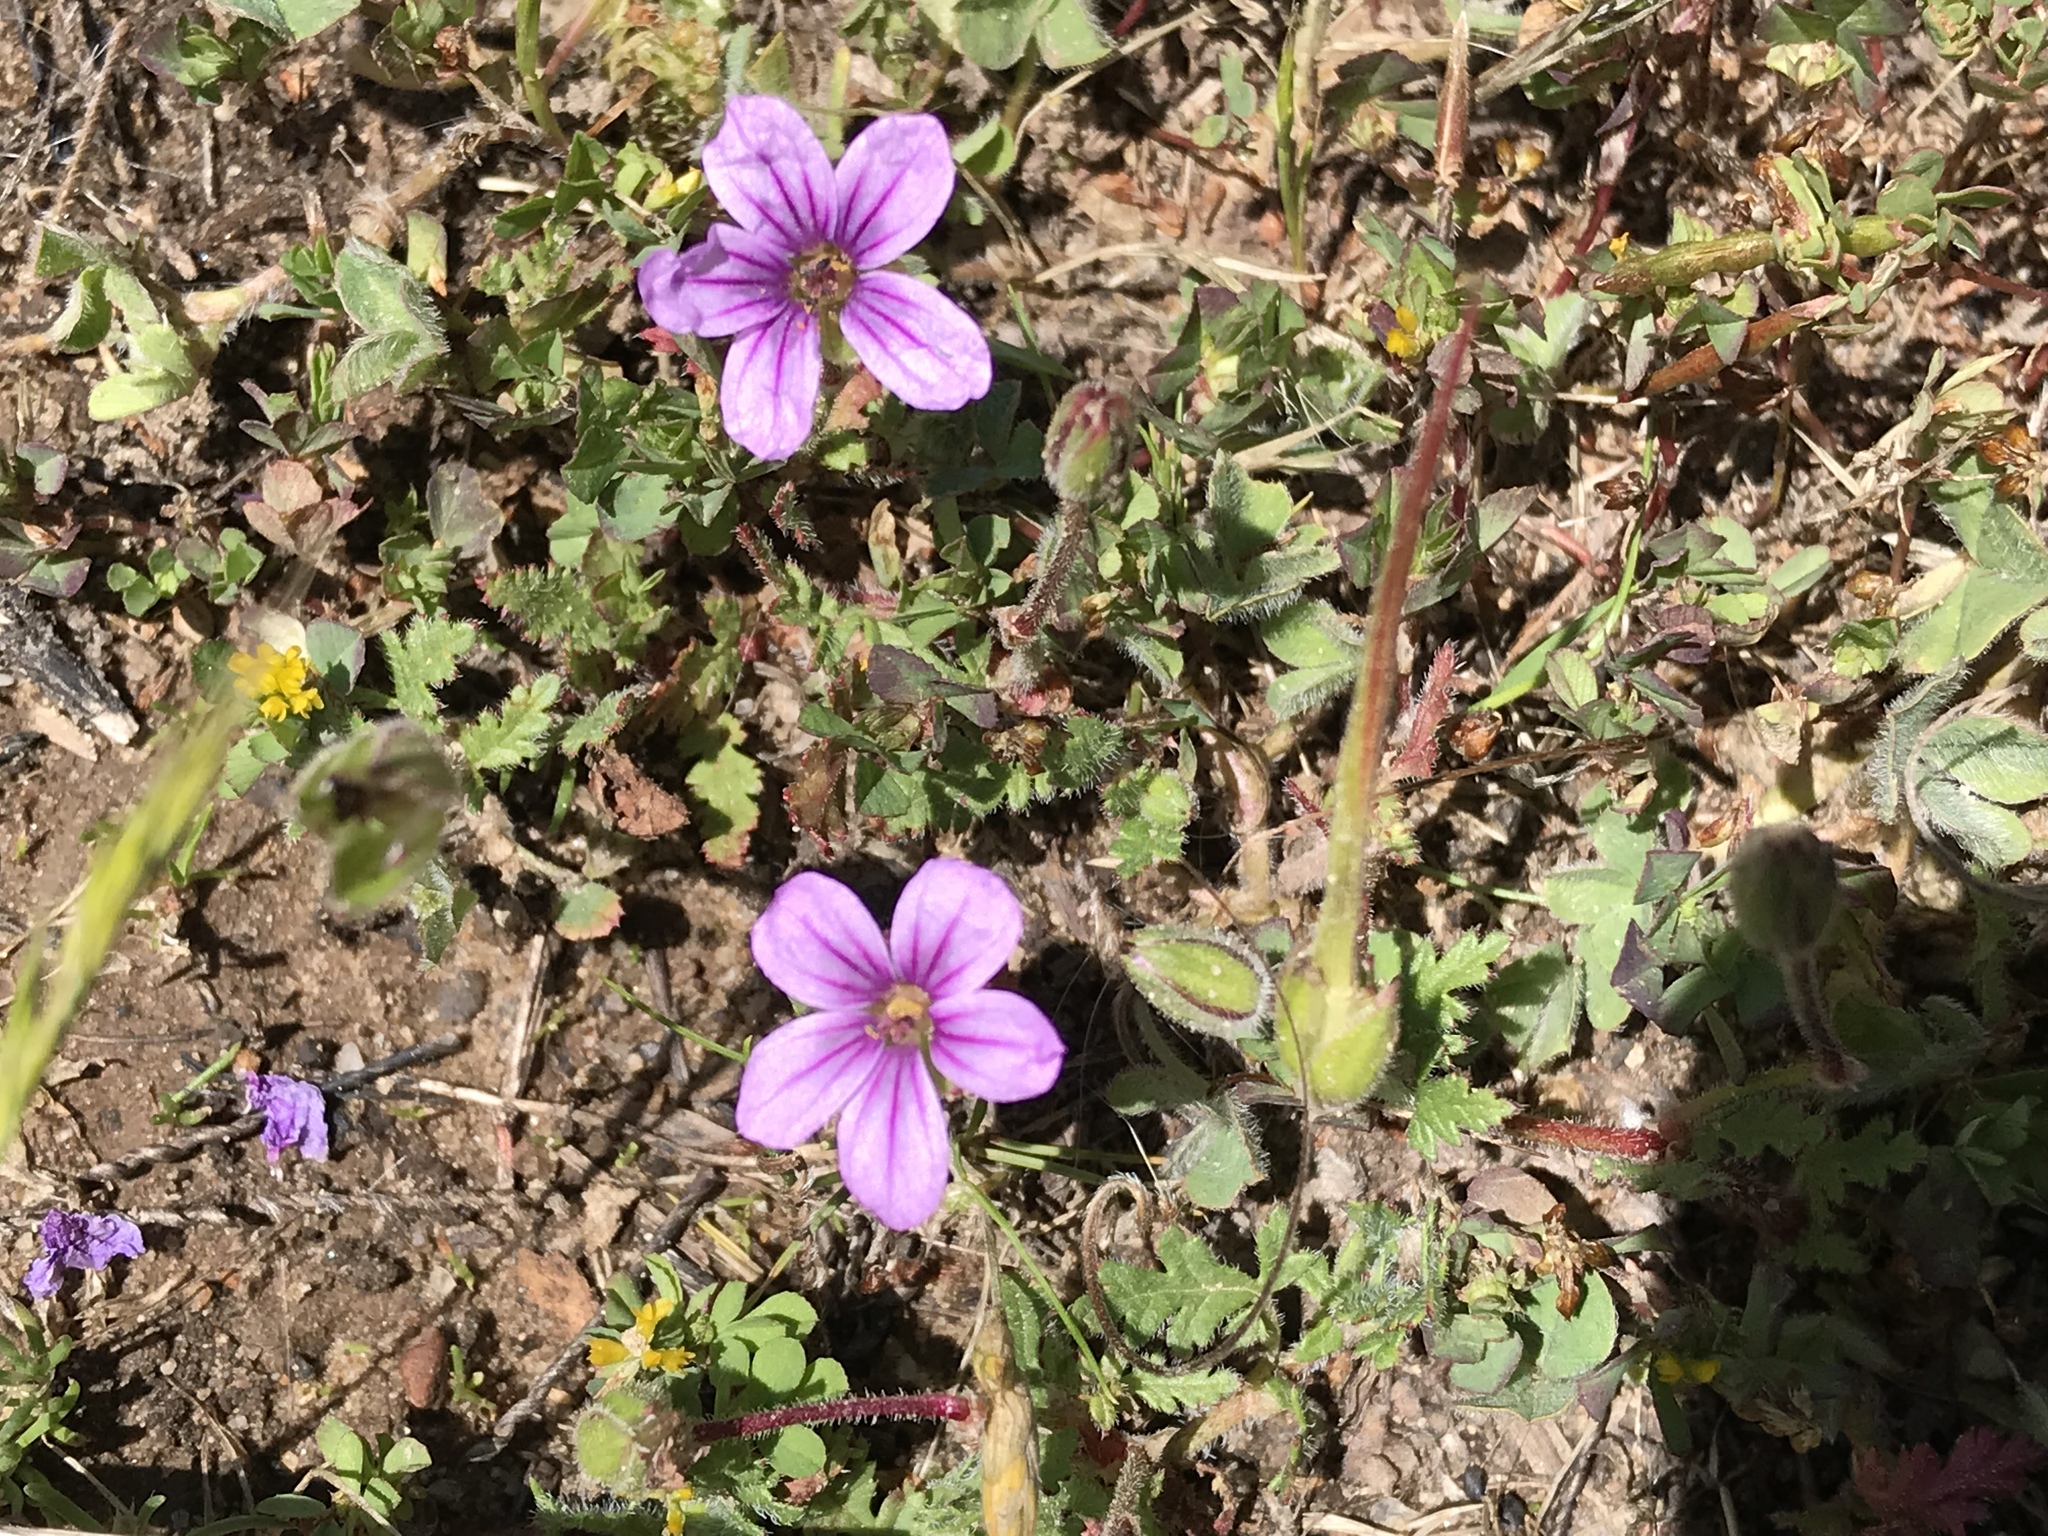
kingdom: Plantae
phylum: Tracheophyta
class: Magnoliopsida
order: Geraniales
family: Geraniaceae
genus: Erodium
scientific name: Erodium botrys
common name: Mediterranean stork's-bill
